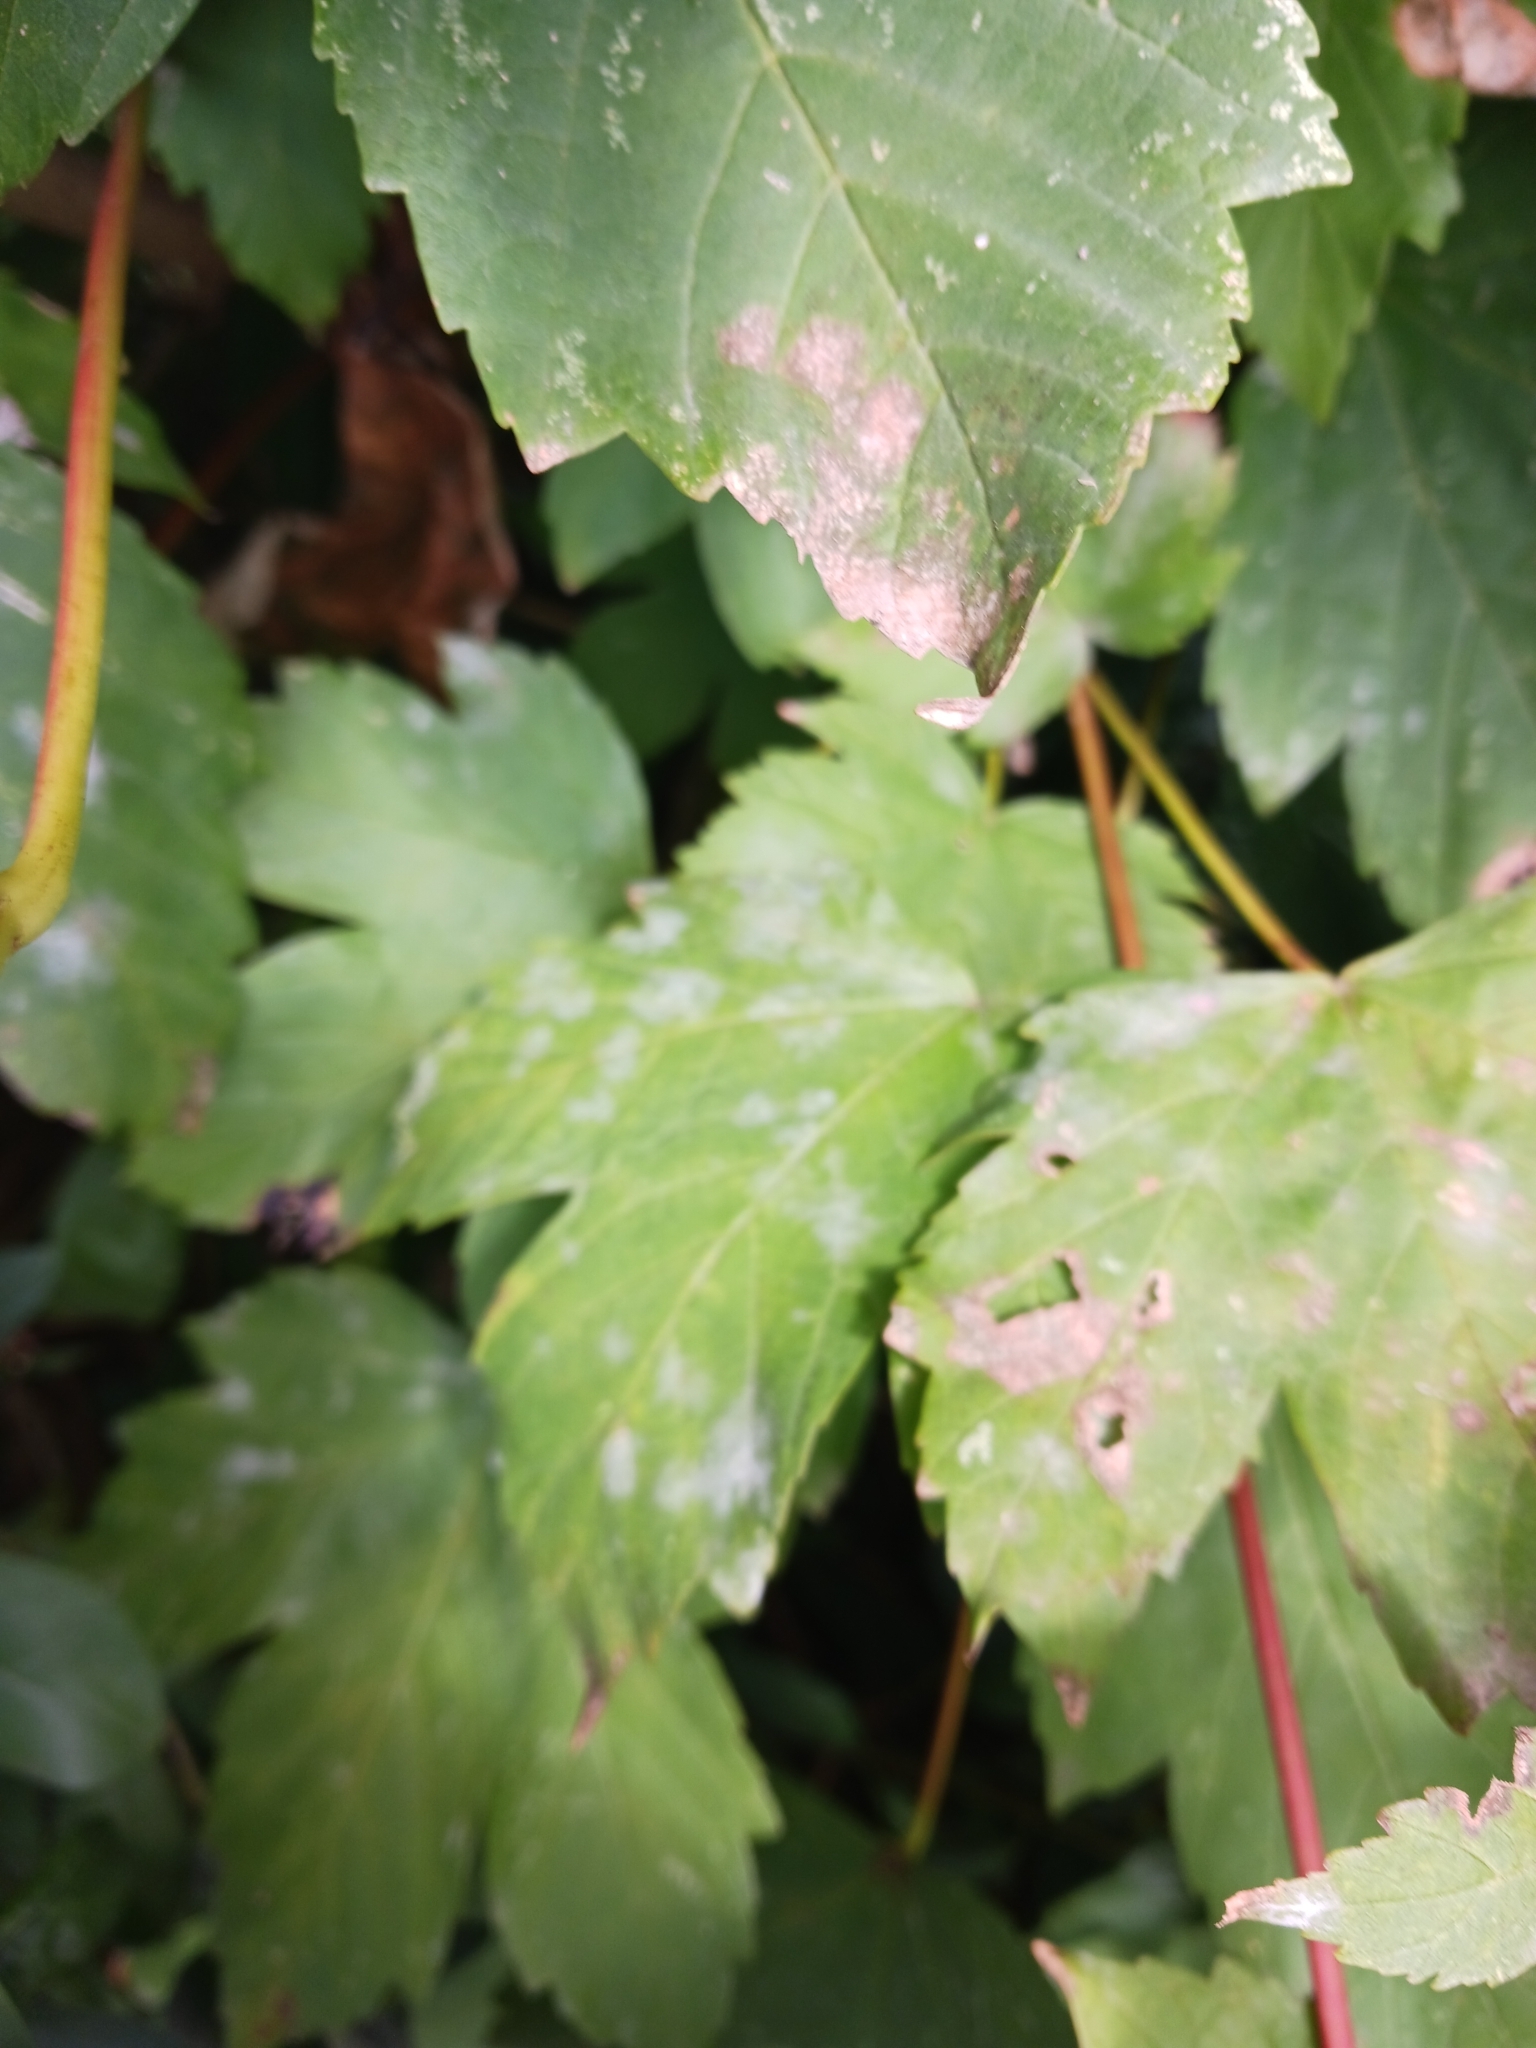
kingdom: Fungi
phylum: Ascomycota
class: Leotiomycetes
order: Helotiales
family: Erysiphaceae
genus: Sawadaea
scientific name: Sawadaea bicornis
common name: Maple mildew
